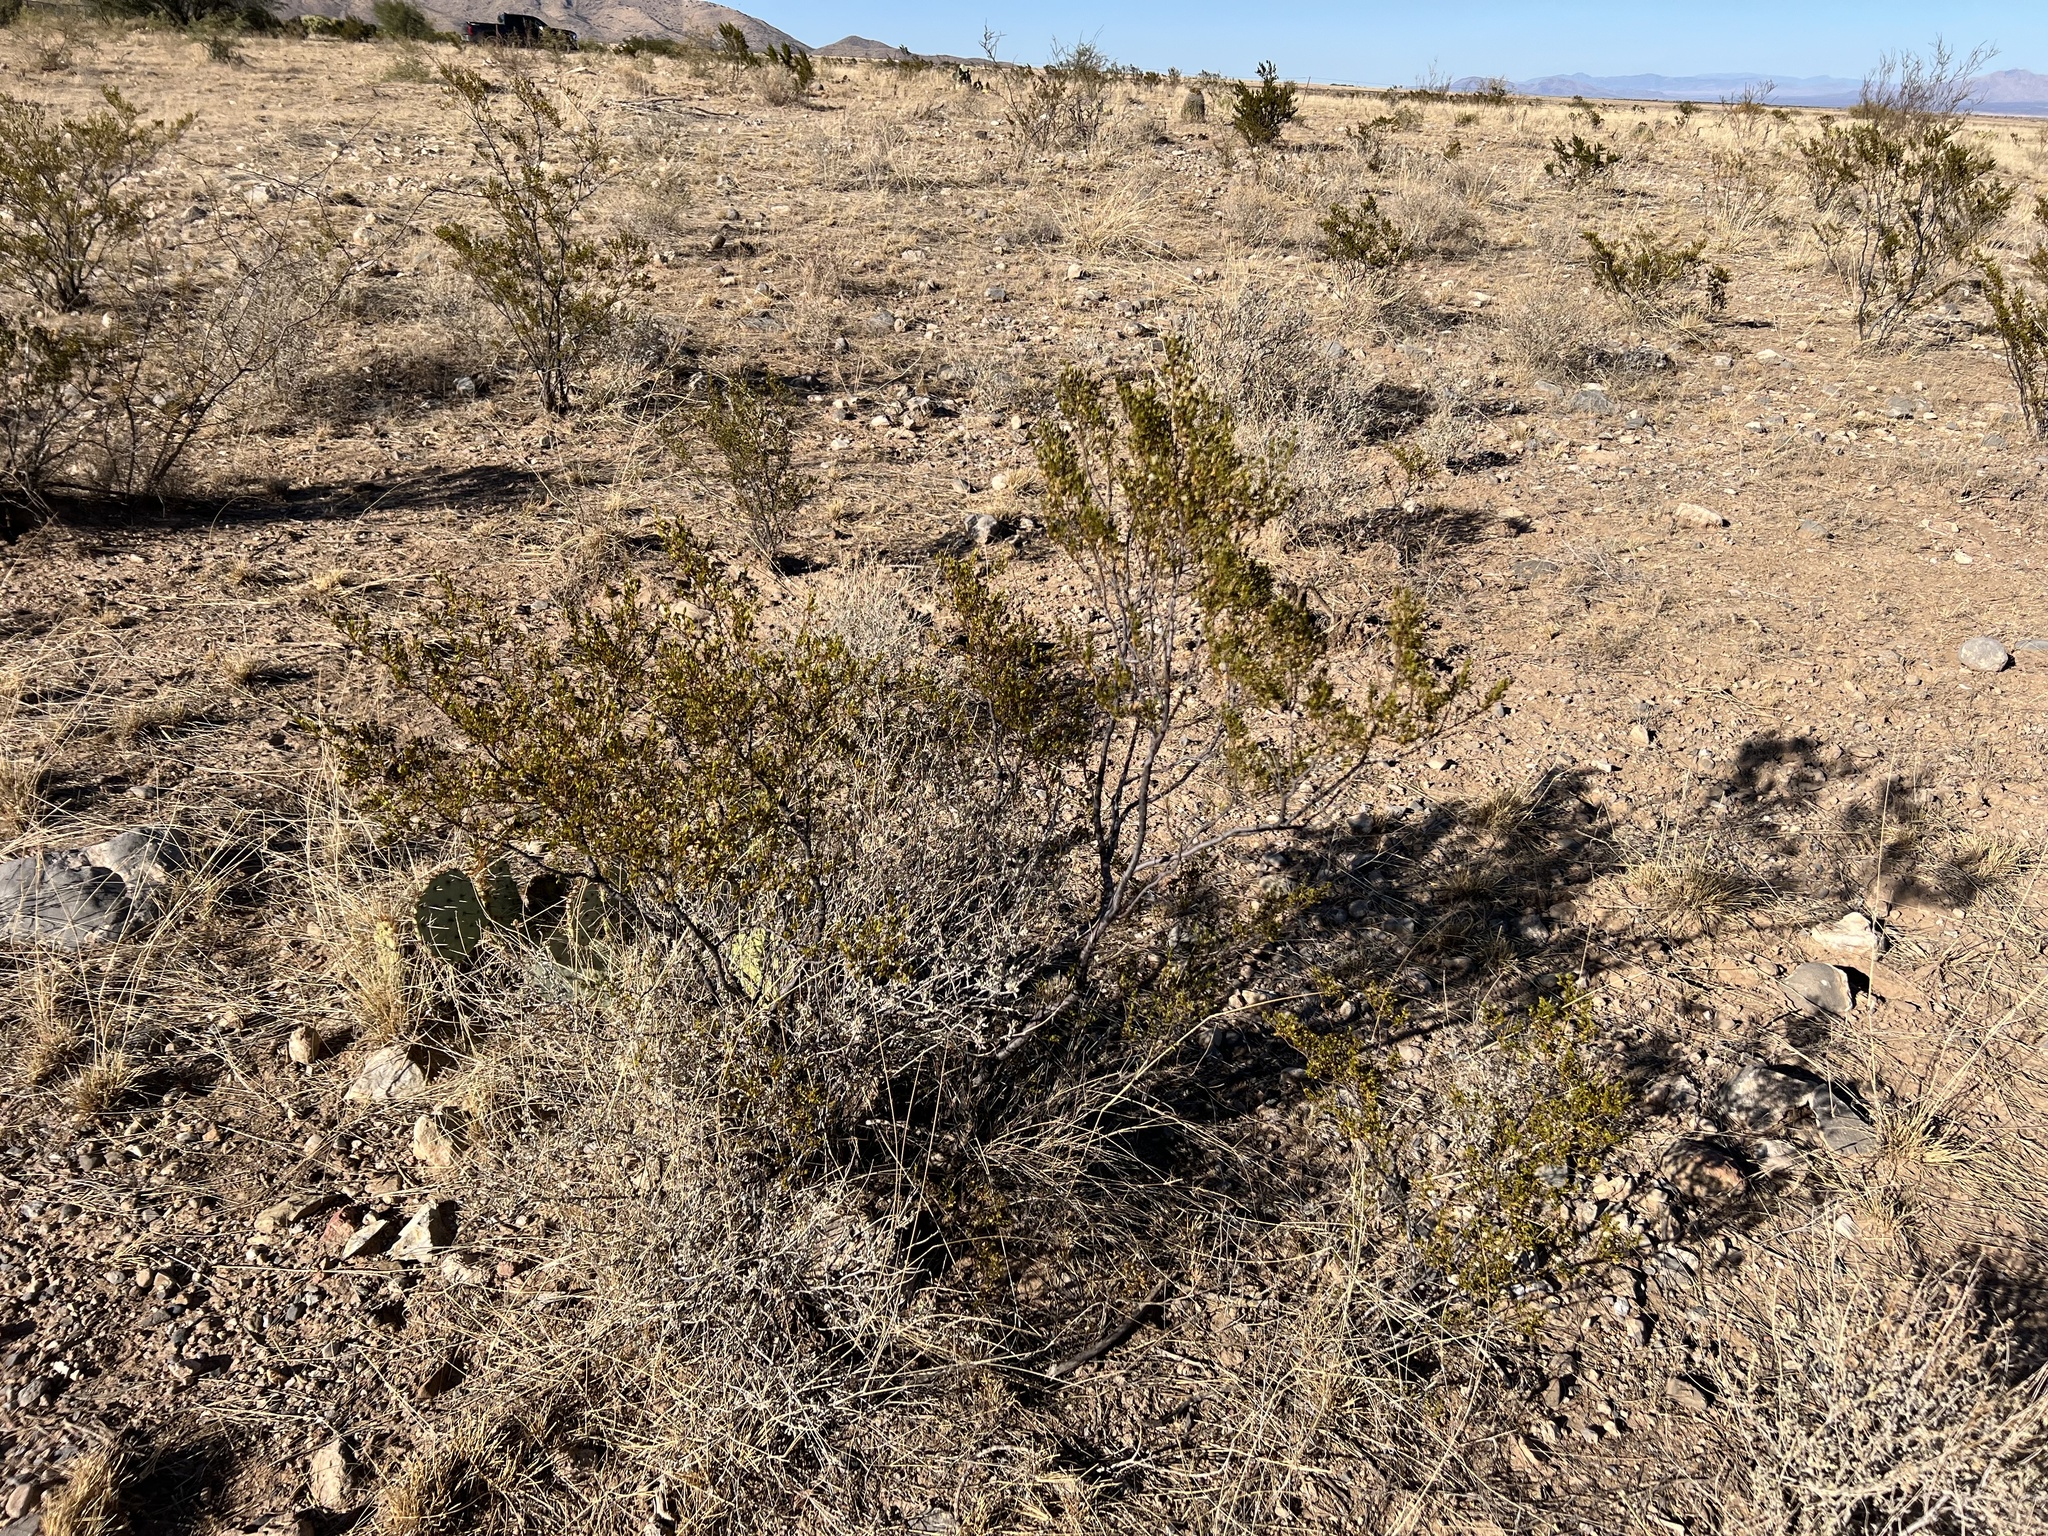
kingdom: Plantae
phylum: Tracheophyta
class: Magnoliopsida
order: Zygophyllales
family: Zygophyllaceae
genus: Larrea
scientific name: Larrea tridentata
